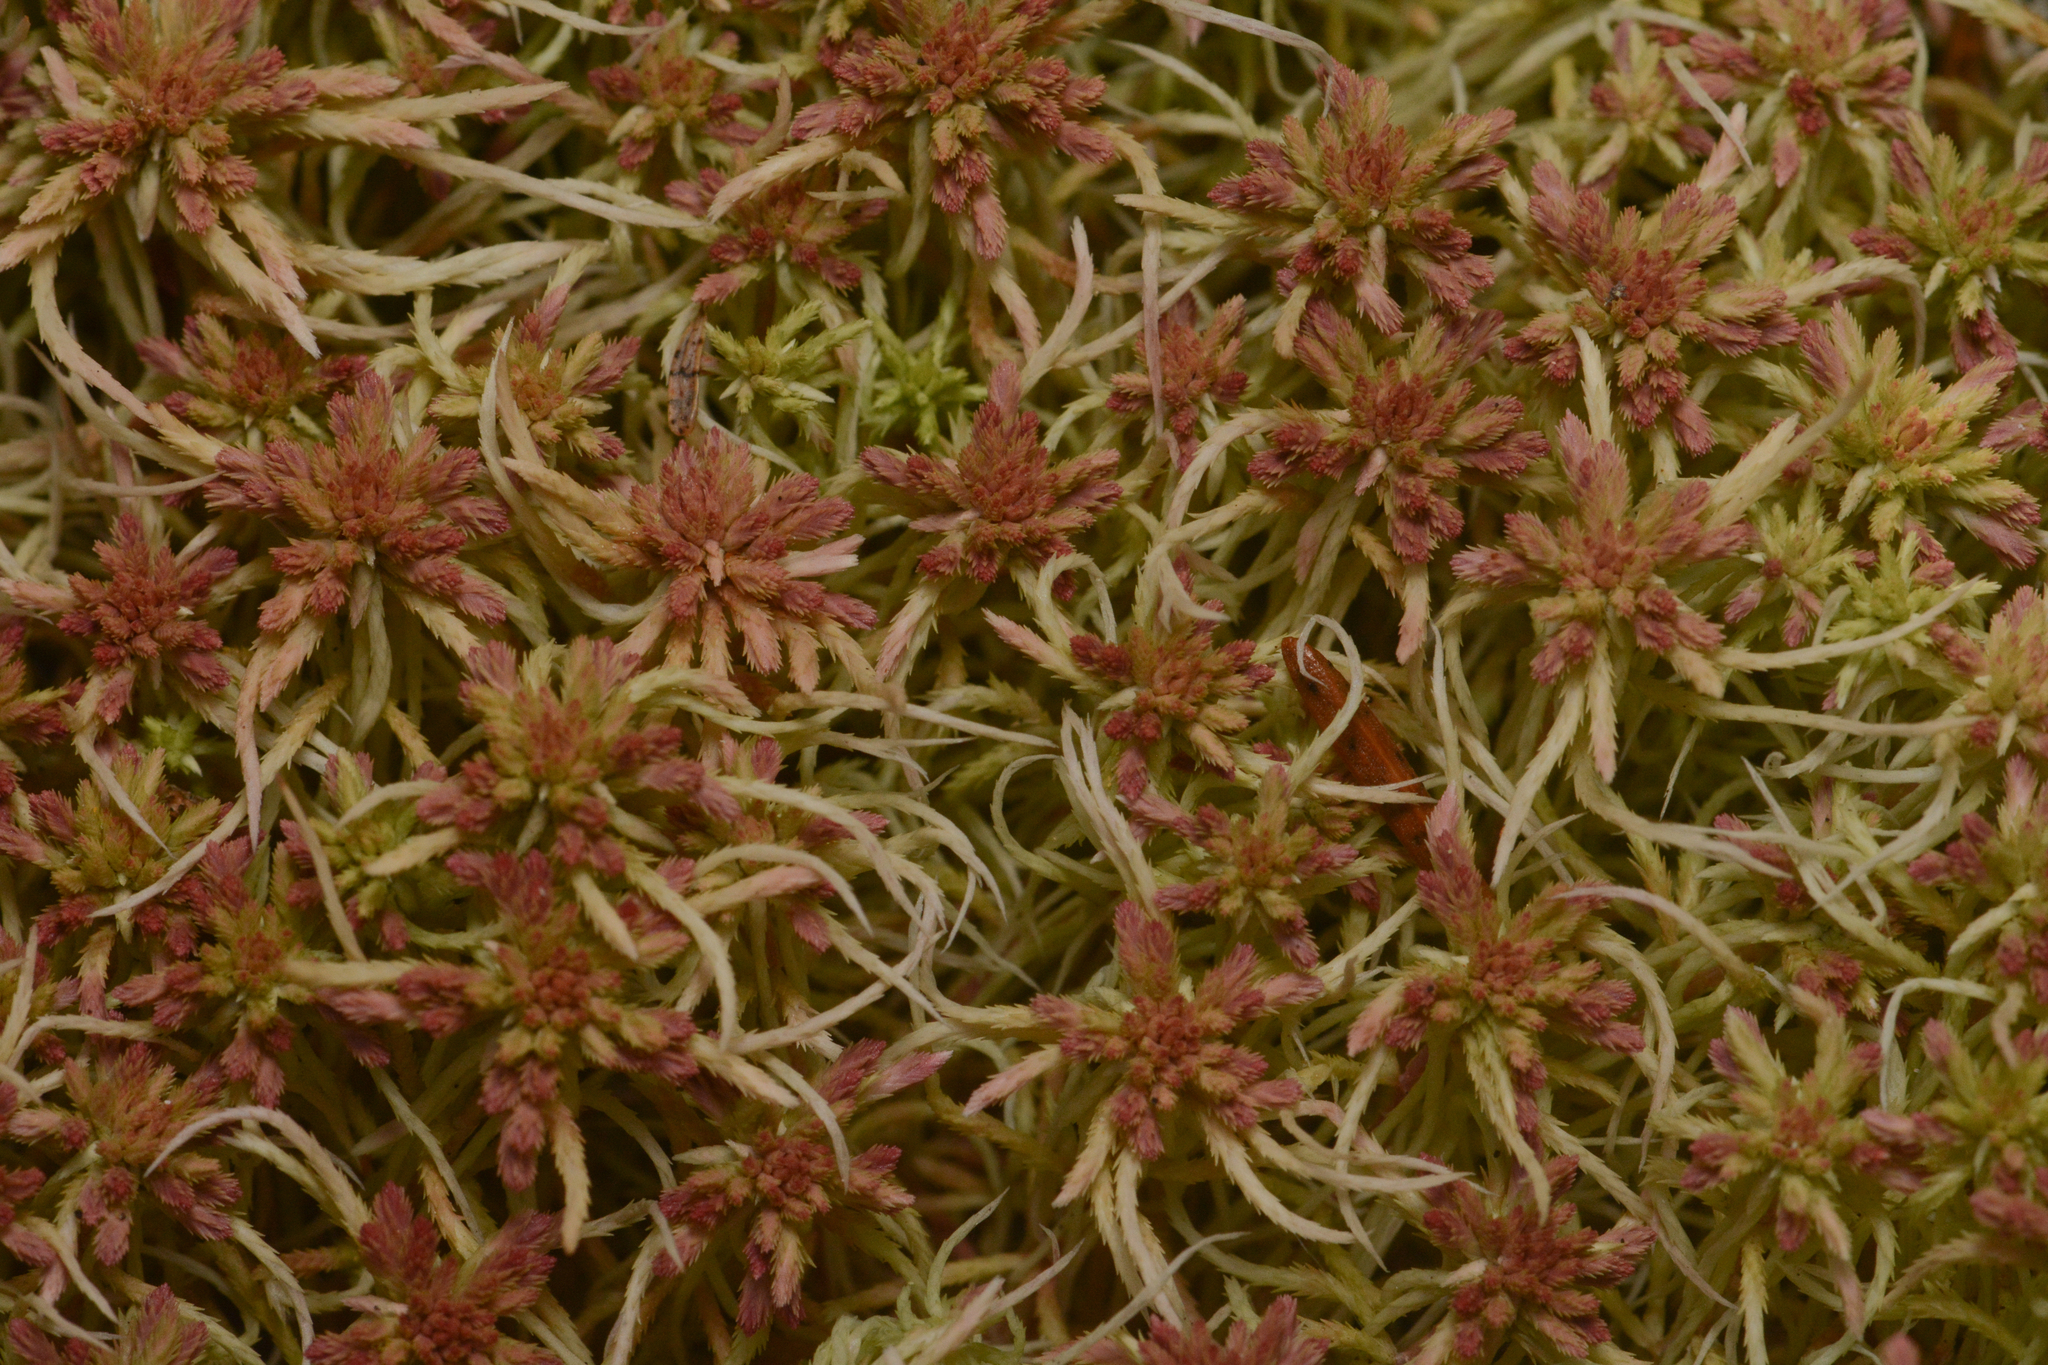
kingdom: Plantae
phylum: Bryophyta
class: Sphagnopsida
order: Sphagnales
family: Sphagnaceae
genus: Sphagnum
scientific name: Sphagnum russowii
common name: Russow's peat moss
